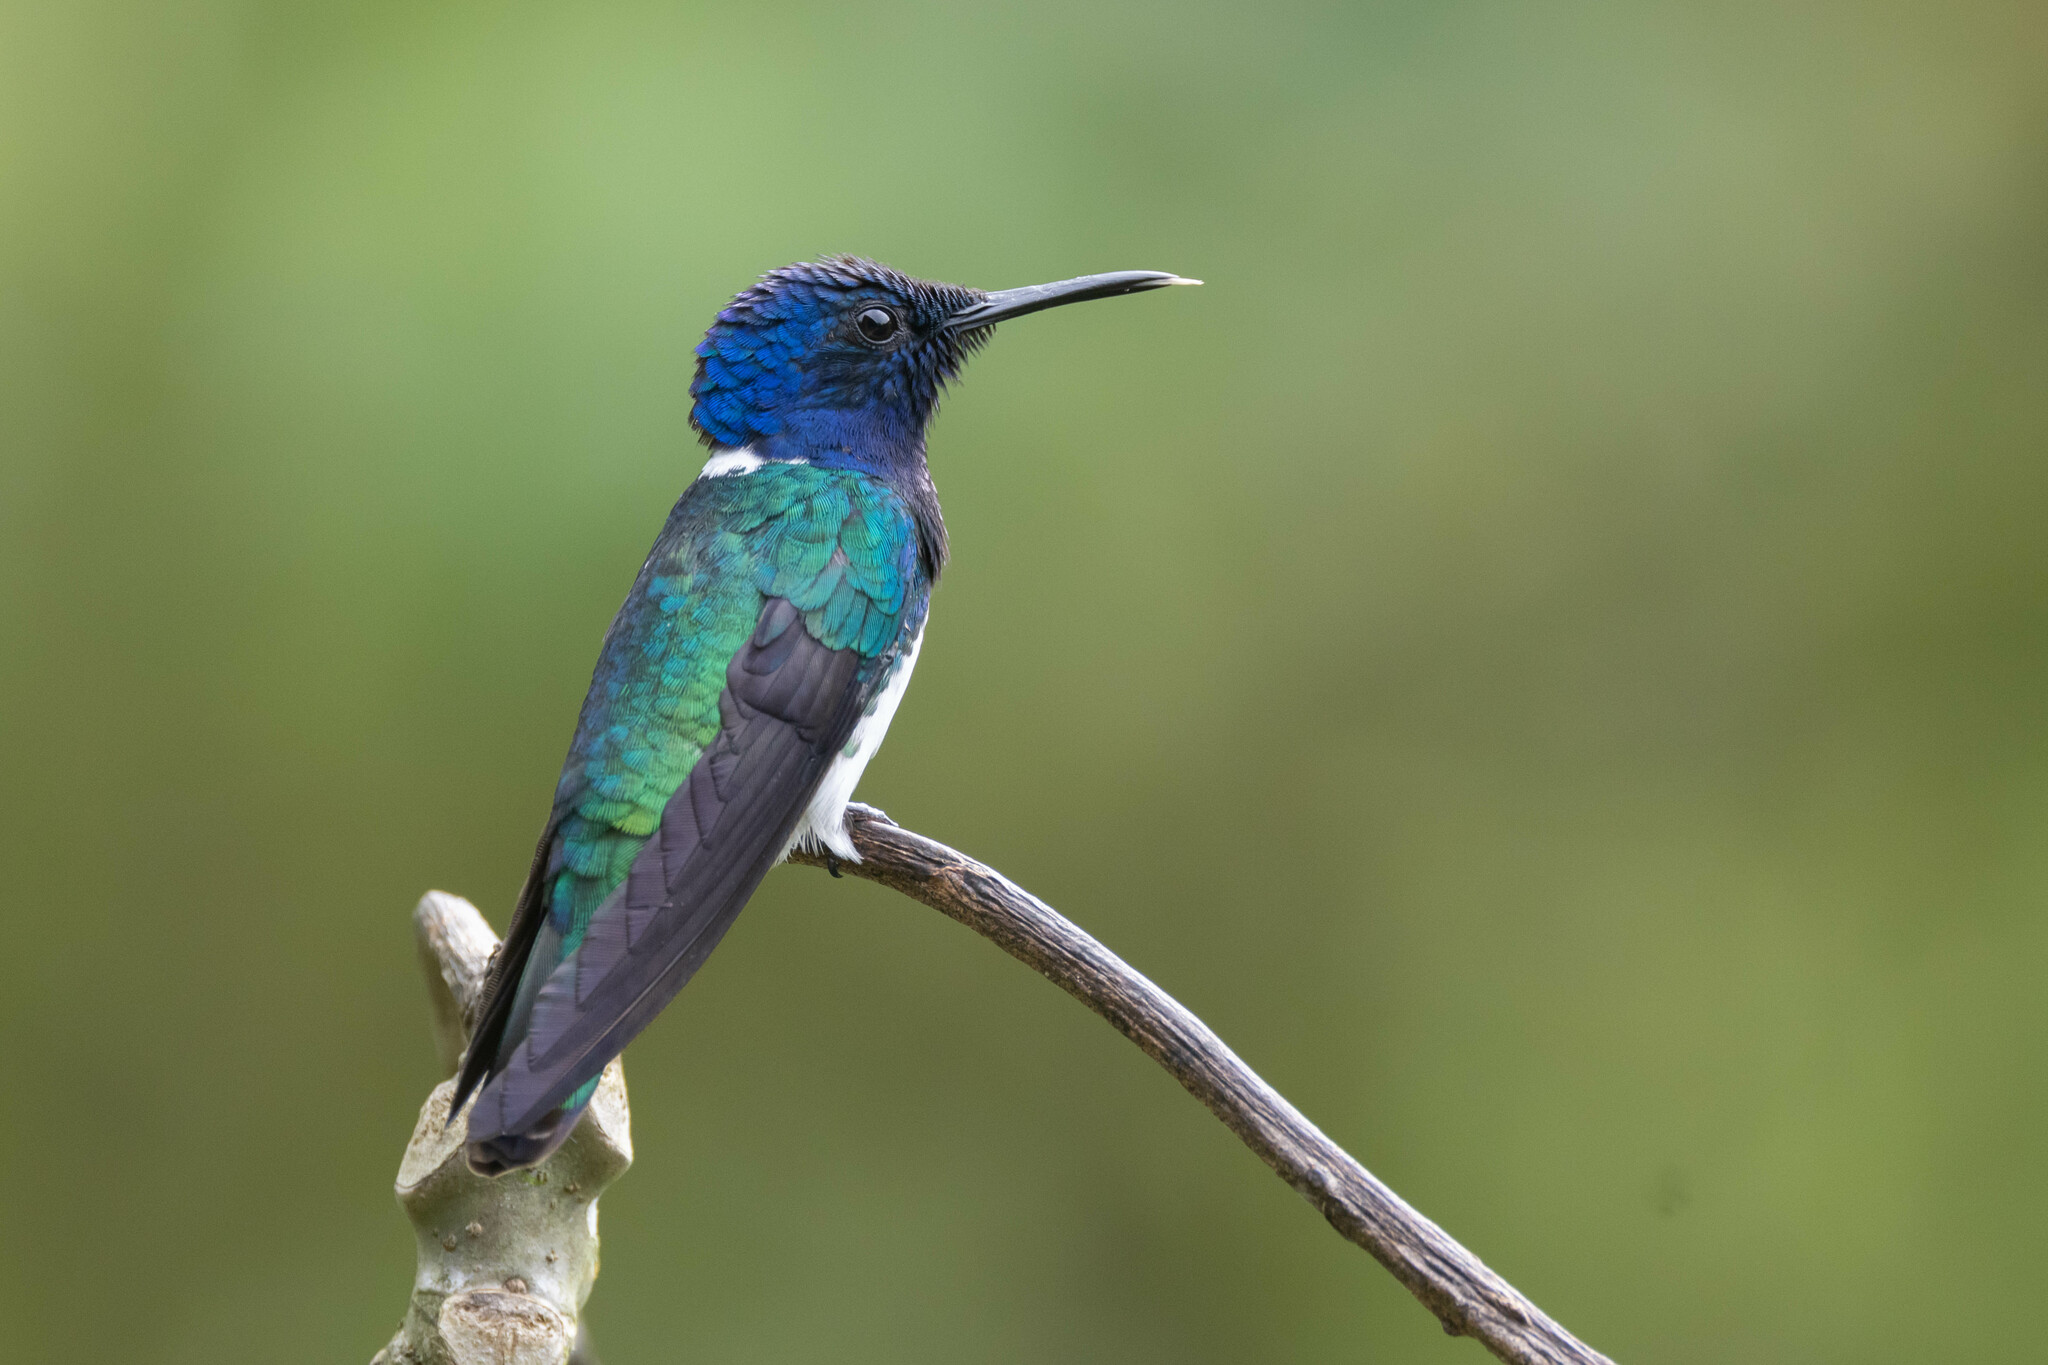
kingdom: Animalia
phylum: Chordata
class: Aves
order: Apodiformes
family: Trochilidae
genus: Florisuga
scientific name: Florisuga mellivora
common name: White-necked jacobin
